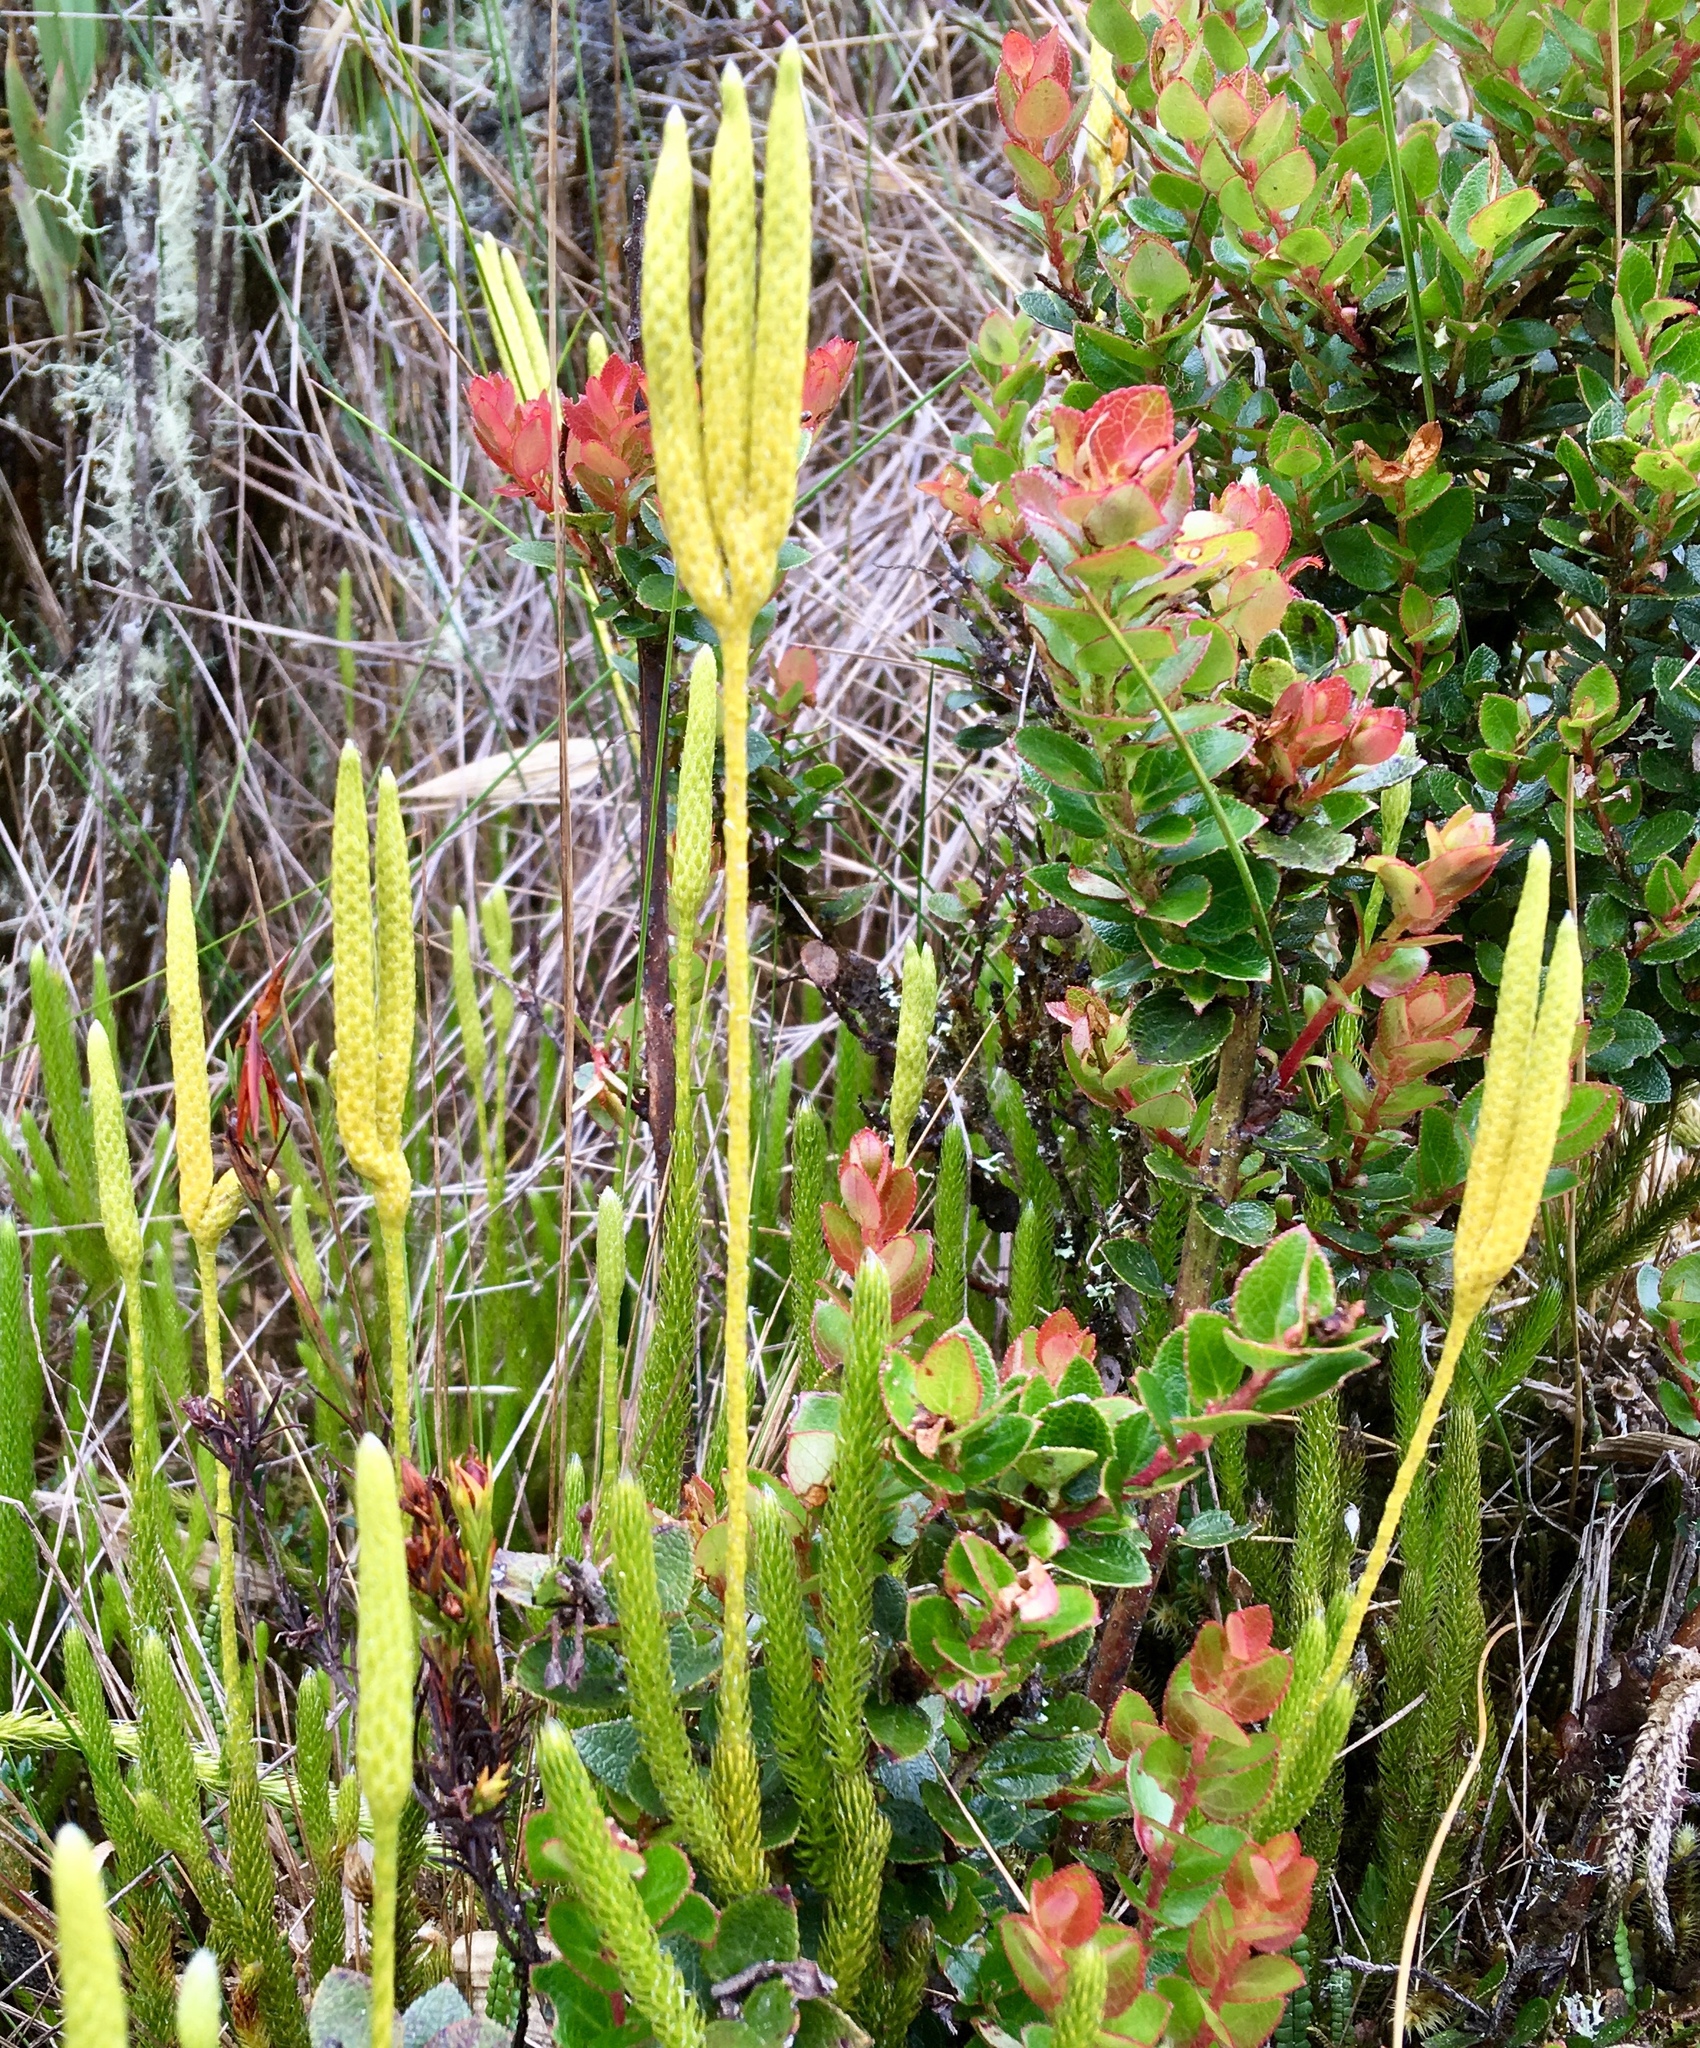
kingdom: Plantae
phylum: Tracheophyta
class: Lycopodiopsida
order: Lycopodiales
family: Lycopodiaceae
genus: Lycopodium
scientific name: Lycopodium clavatum
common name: Stag's-horn clubmoss
